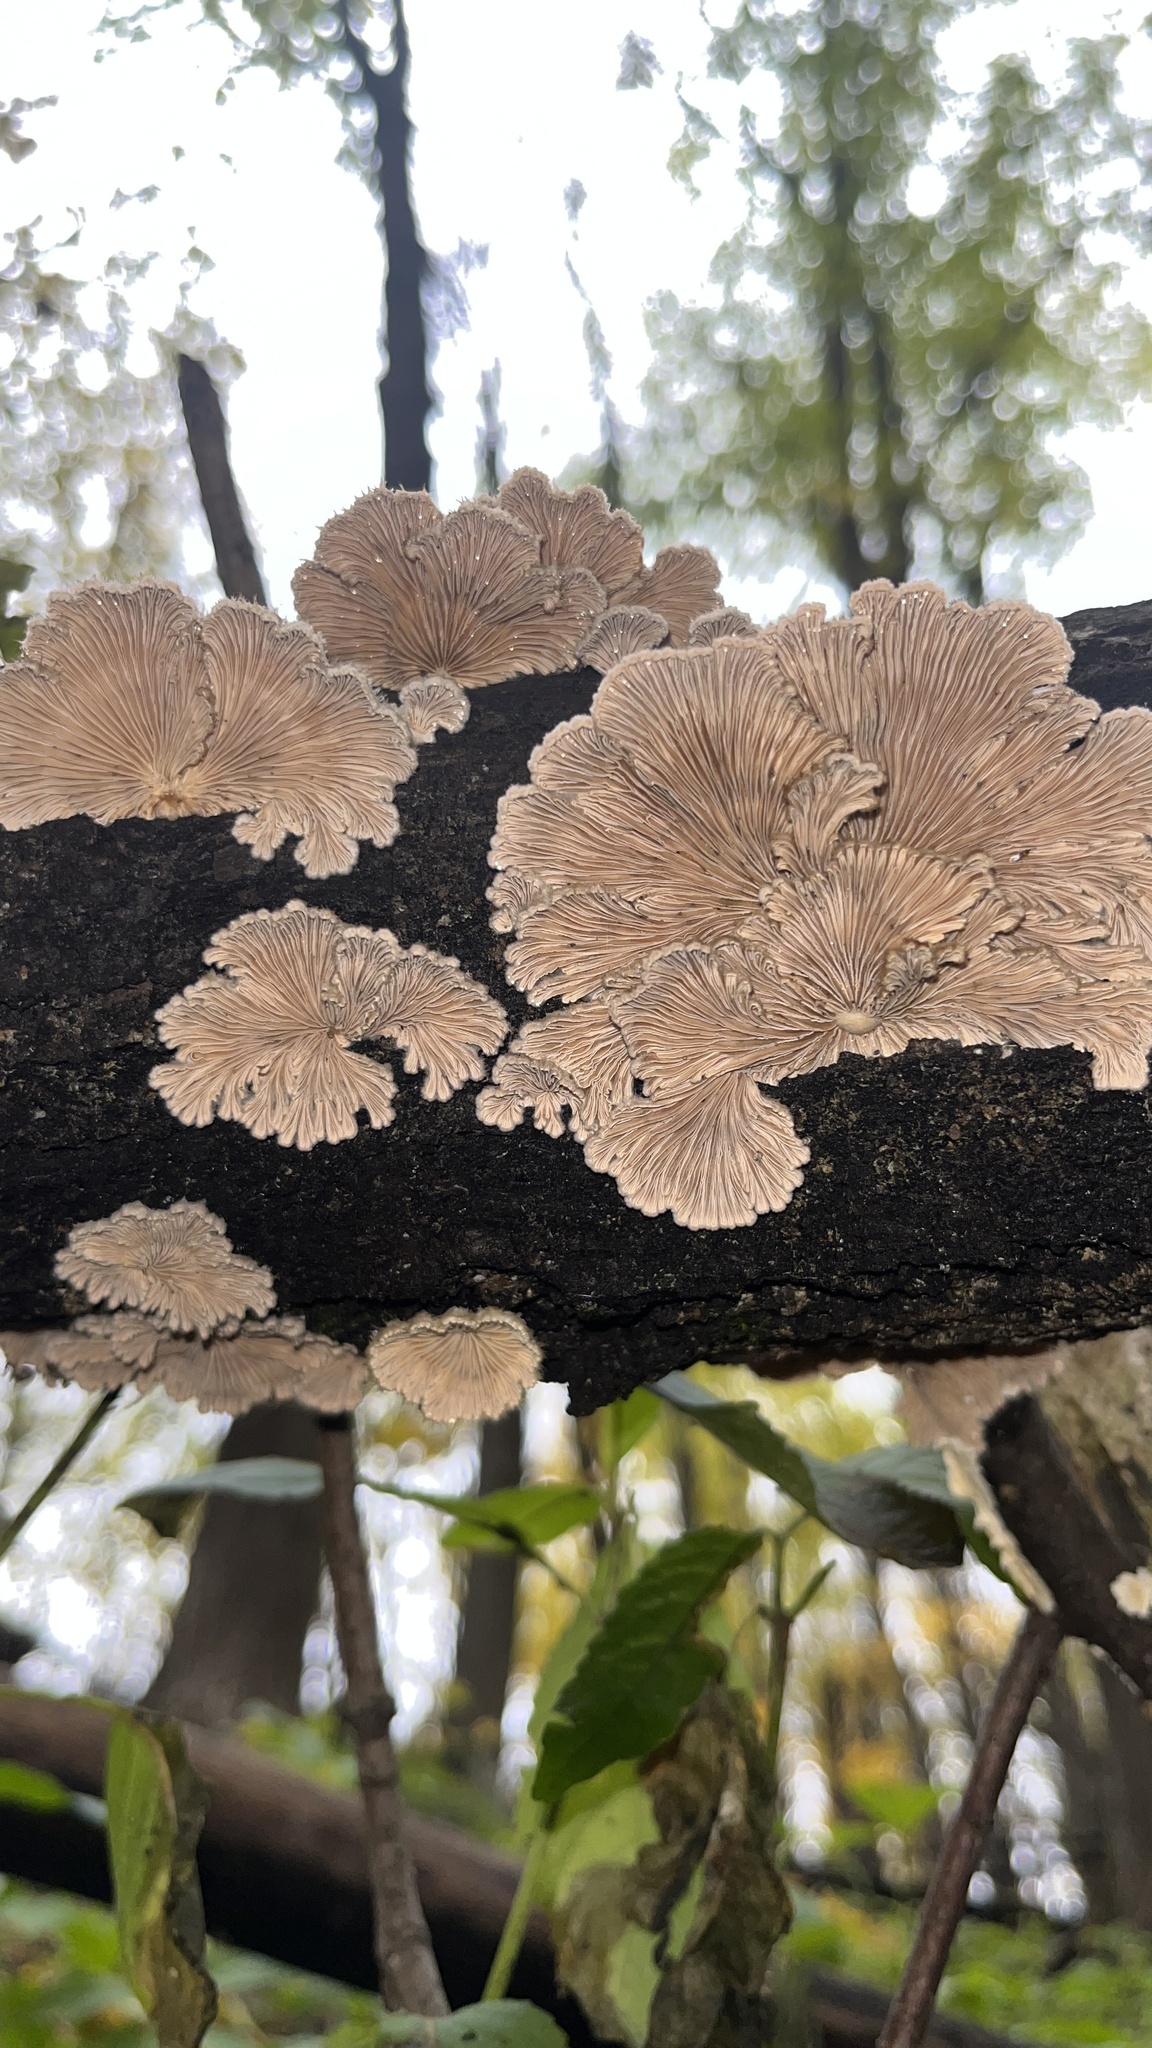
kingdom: Fungi
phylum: Basidiomycota
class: Agaricomycetes
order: Agaricales
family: Schizophyllaceae
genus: Schizophyllum
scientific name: Schizophyllum commune
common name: Common porecrust
